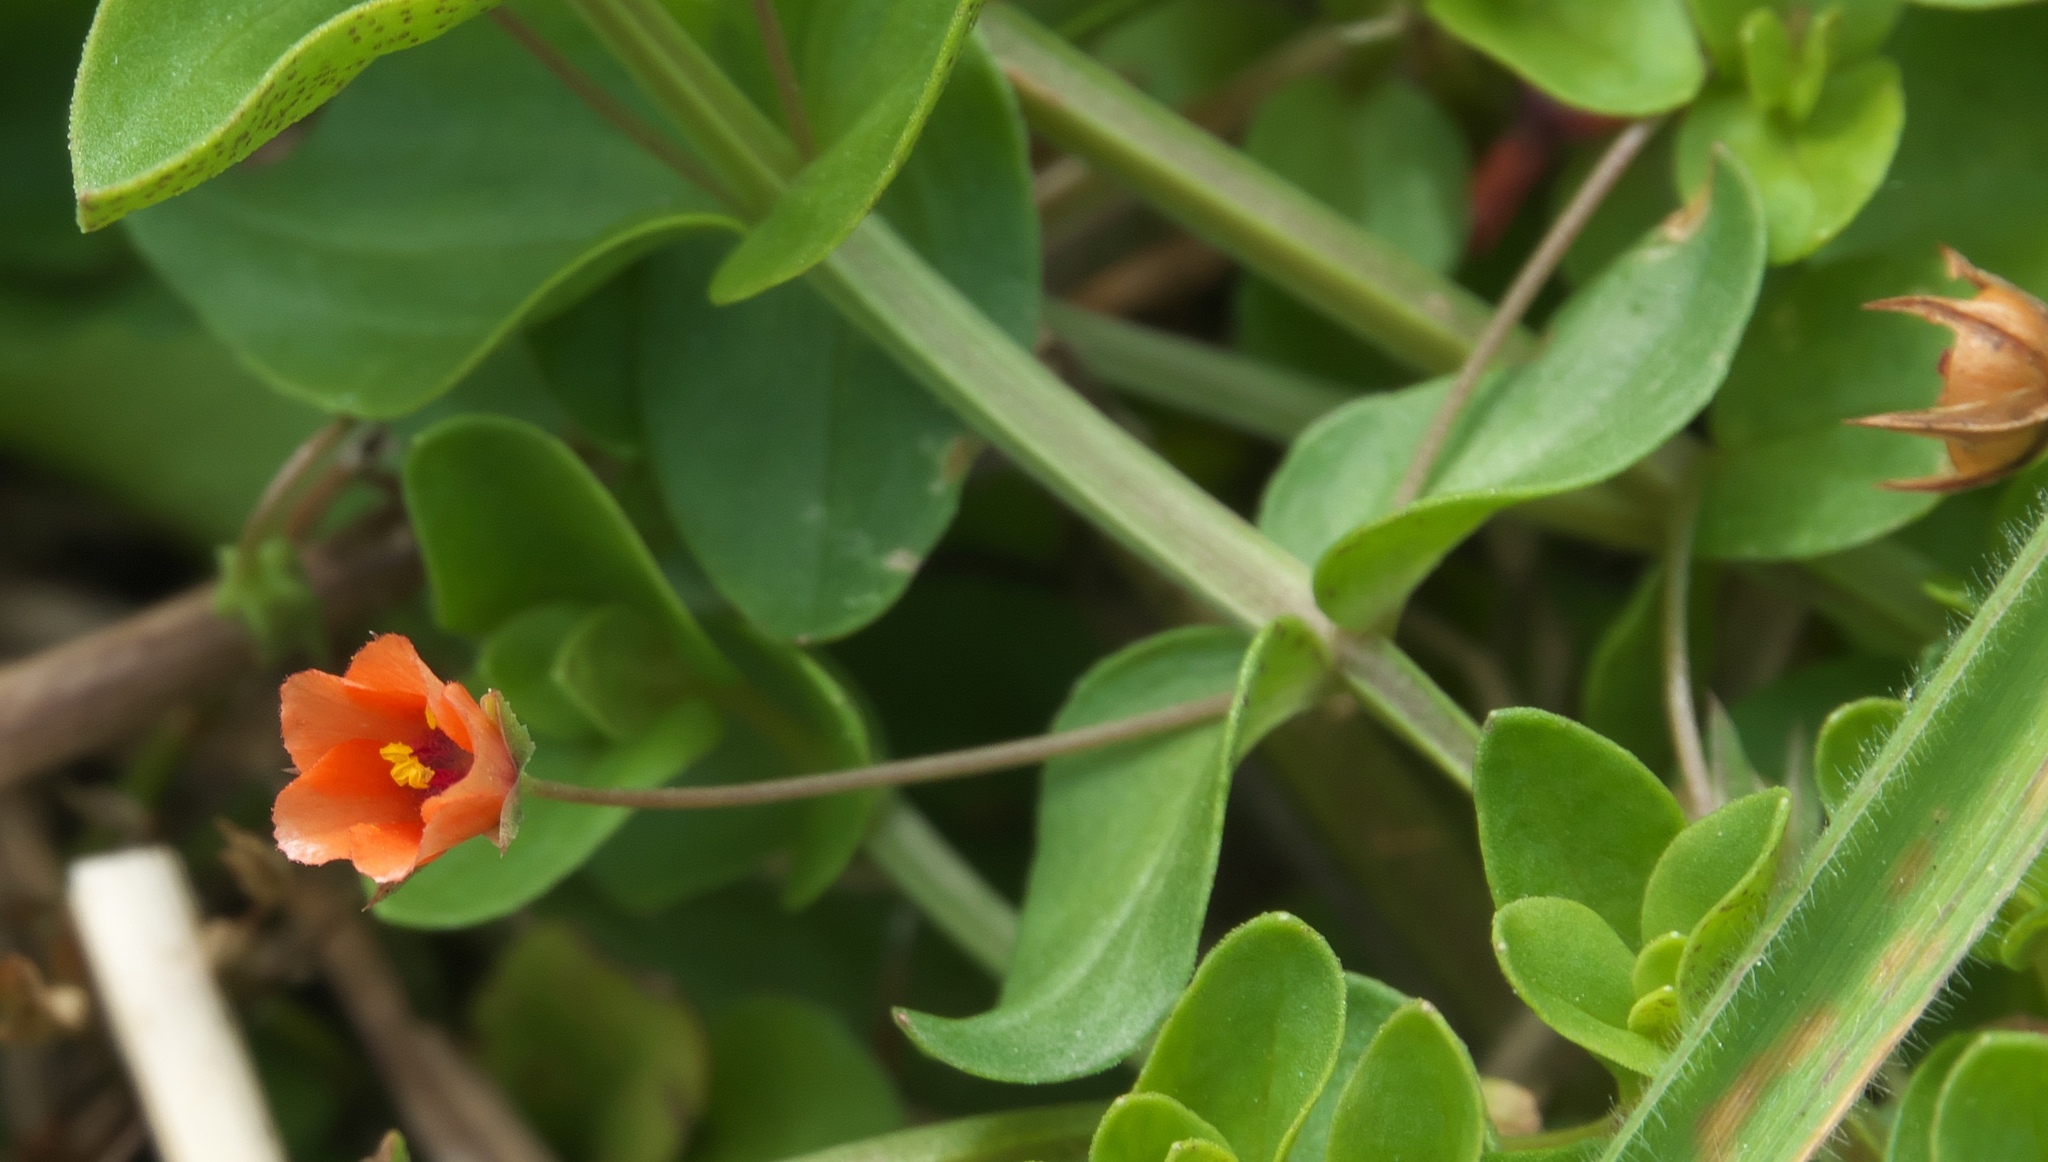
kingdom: Plantae
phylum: Tracheophyta
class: Magnoliopsida
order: Ericales
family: Primulaceae
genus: Lysimachia
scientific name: Lysimachia arvensis
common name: Scarlet pimpernel
